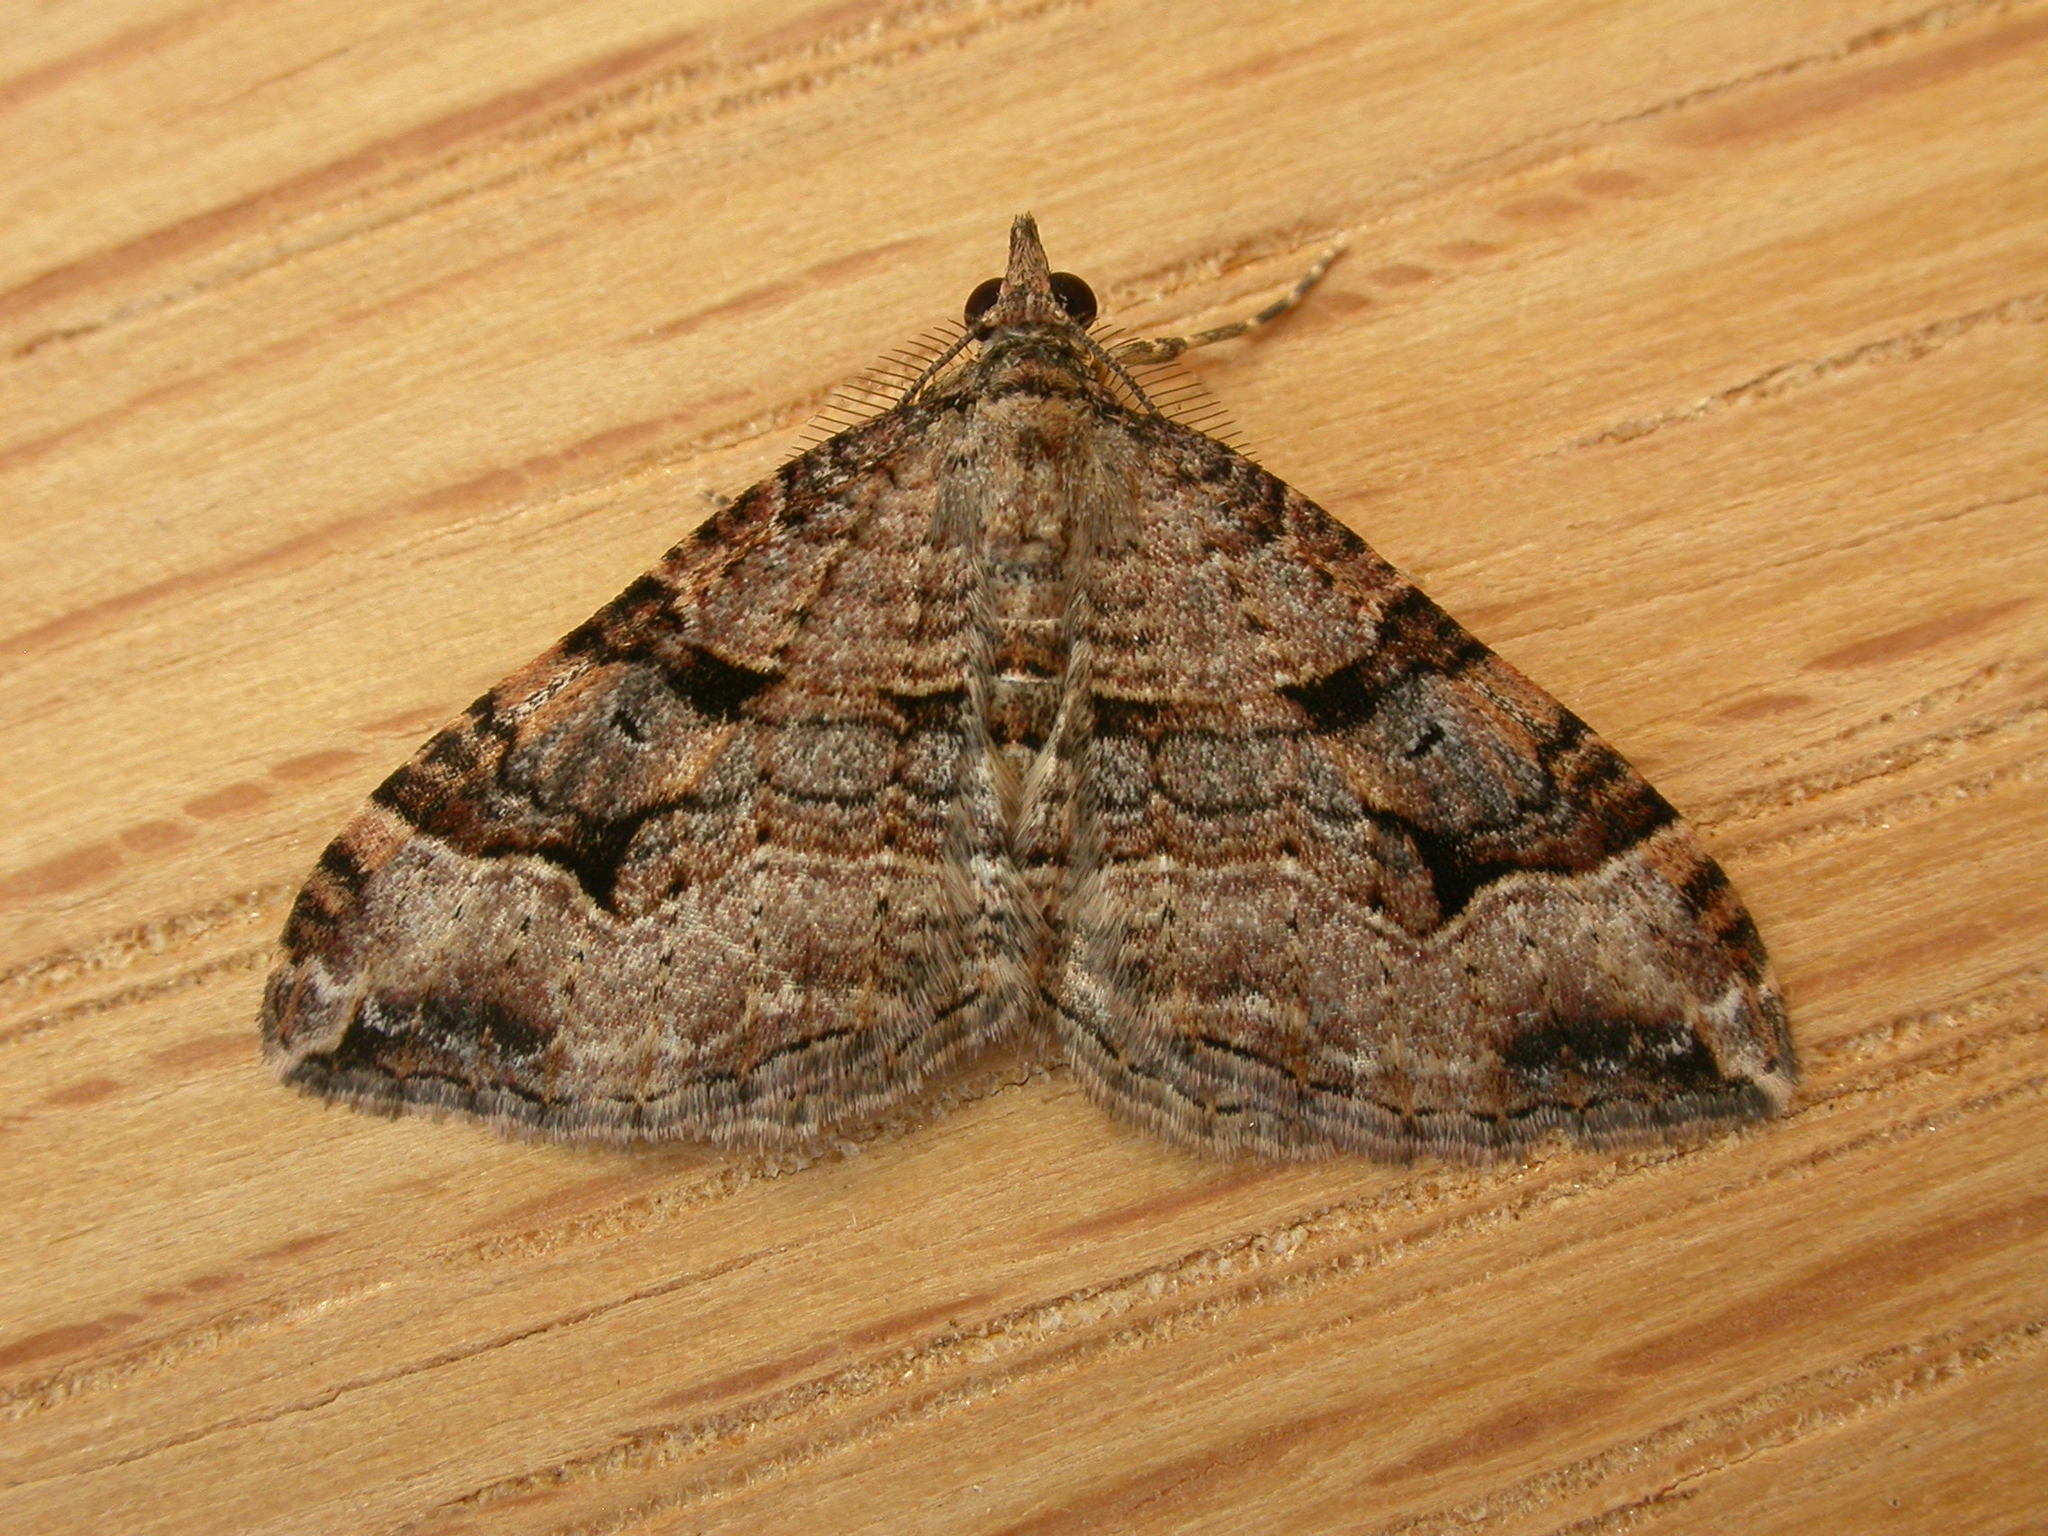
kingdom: Animalia
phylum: Arthropoda
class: Insecta
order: Lepidoptera
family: Geometridae
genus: Epyaxa
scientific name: Epyaxa subidaria
